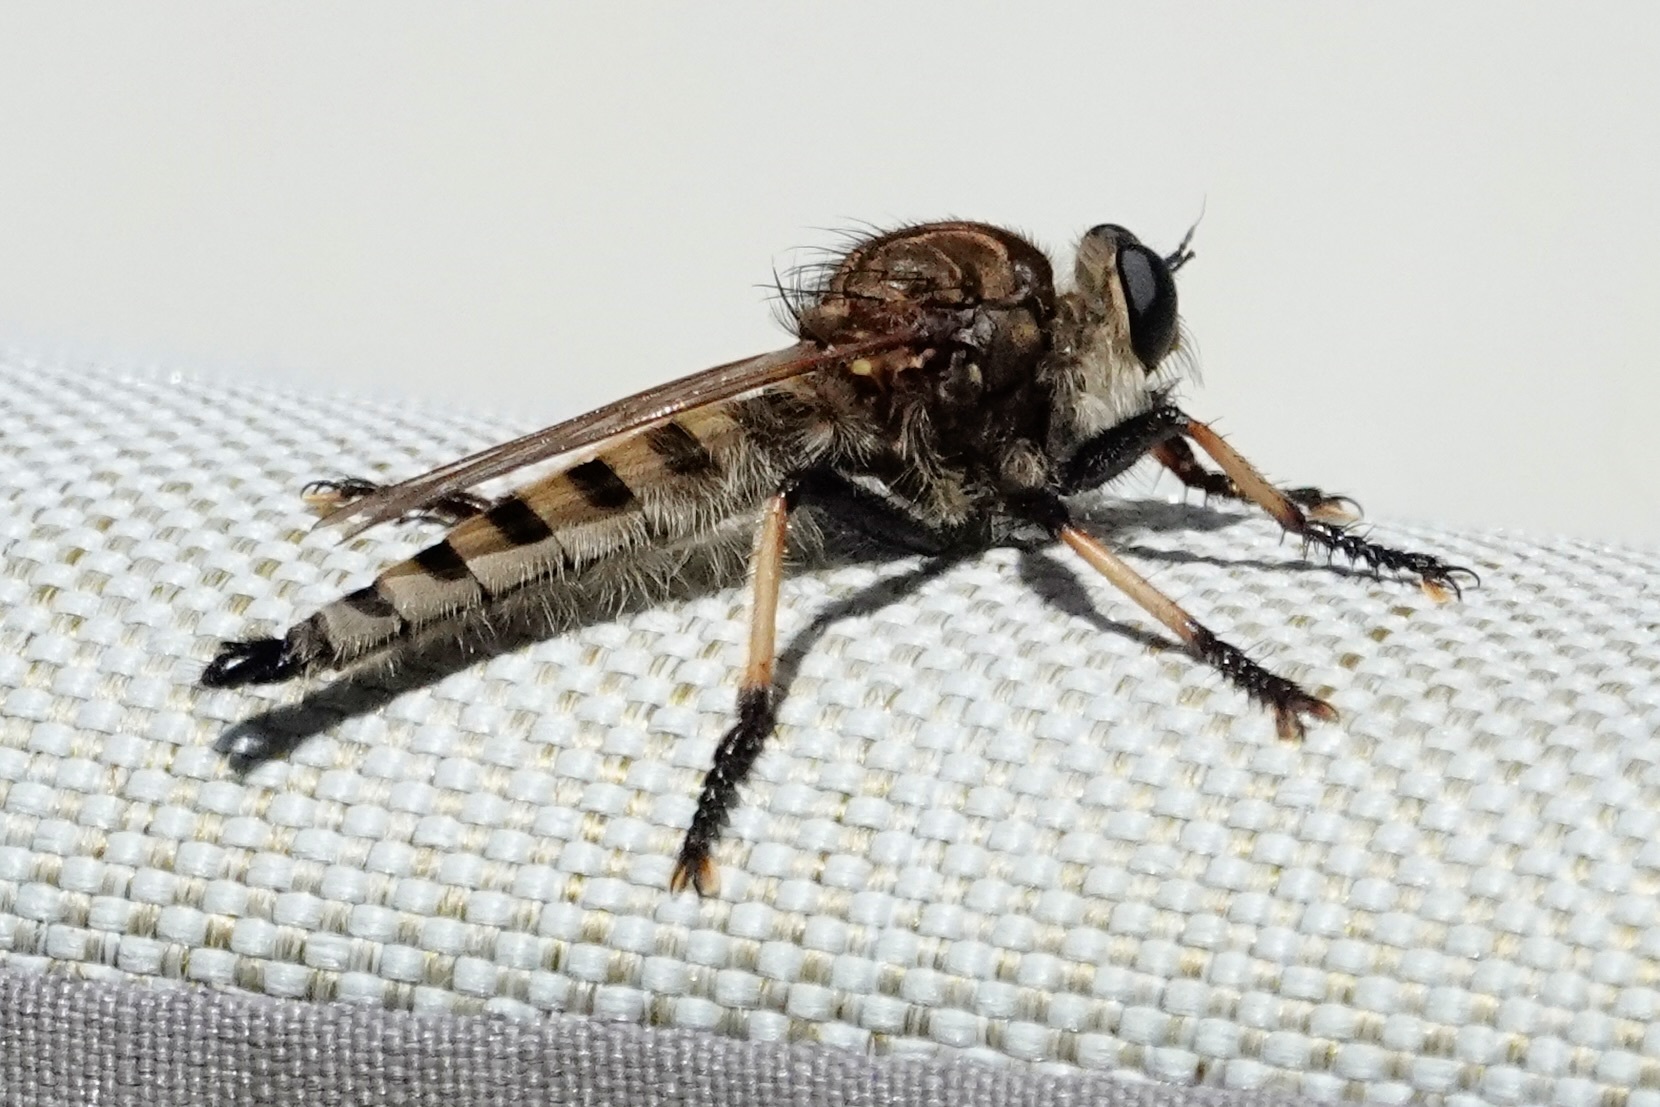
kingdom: Animalia
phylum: Arthropoda
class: Insecta
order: Diptera
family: Asilidae
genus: Promachus
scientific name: Promachus rufipes
